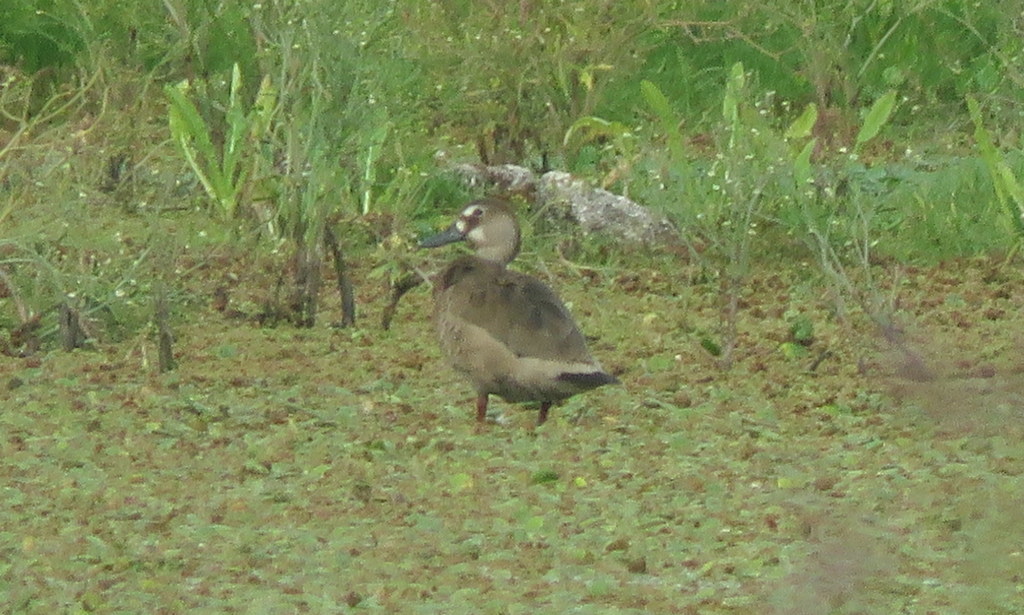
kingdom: Animalia
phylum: Chordata
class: Aves
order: Anseriformes
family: Anatidae
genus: Callonetta
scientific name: Callonetta leucophrys
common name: Ringed teal
